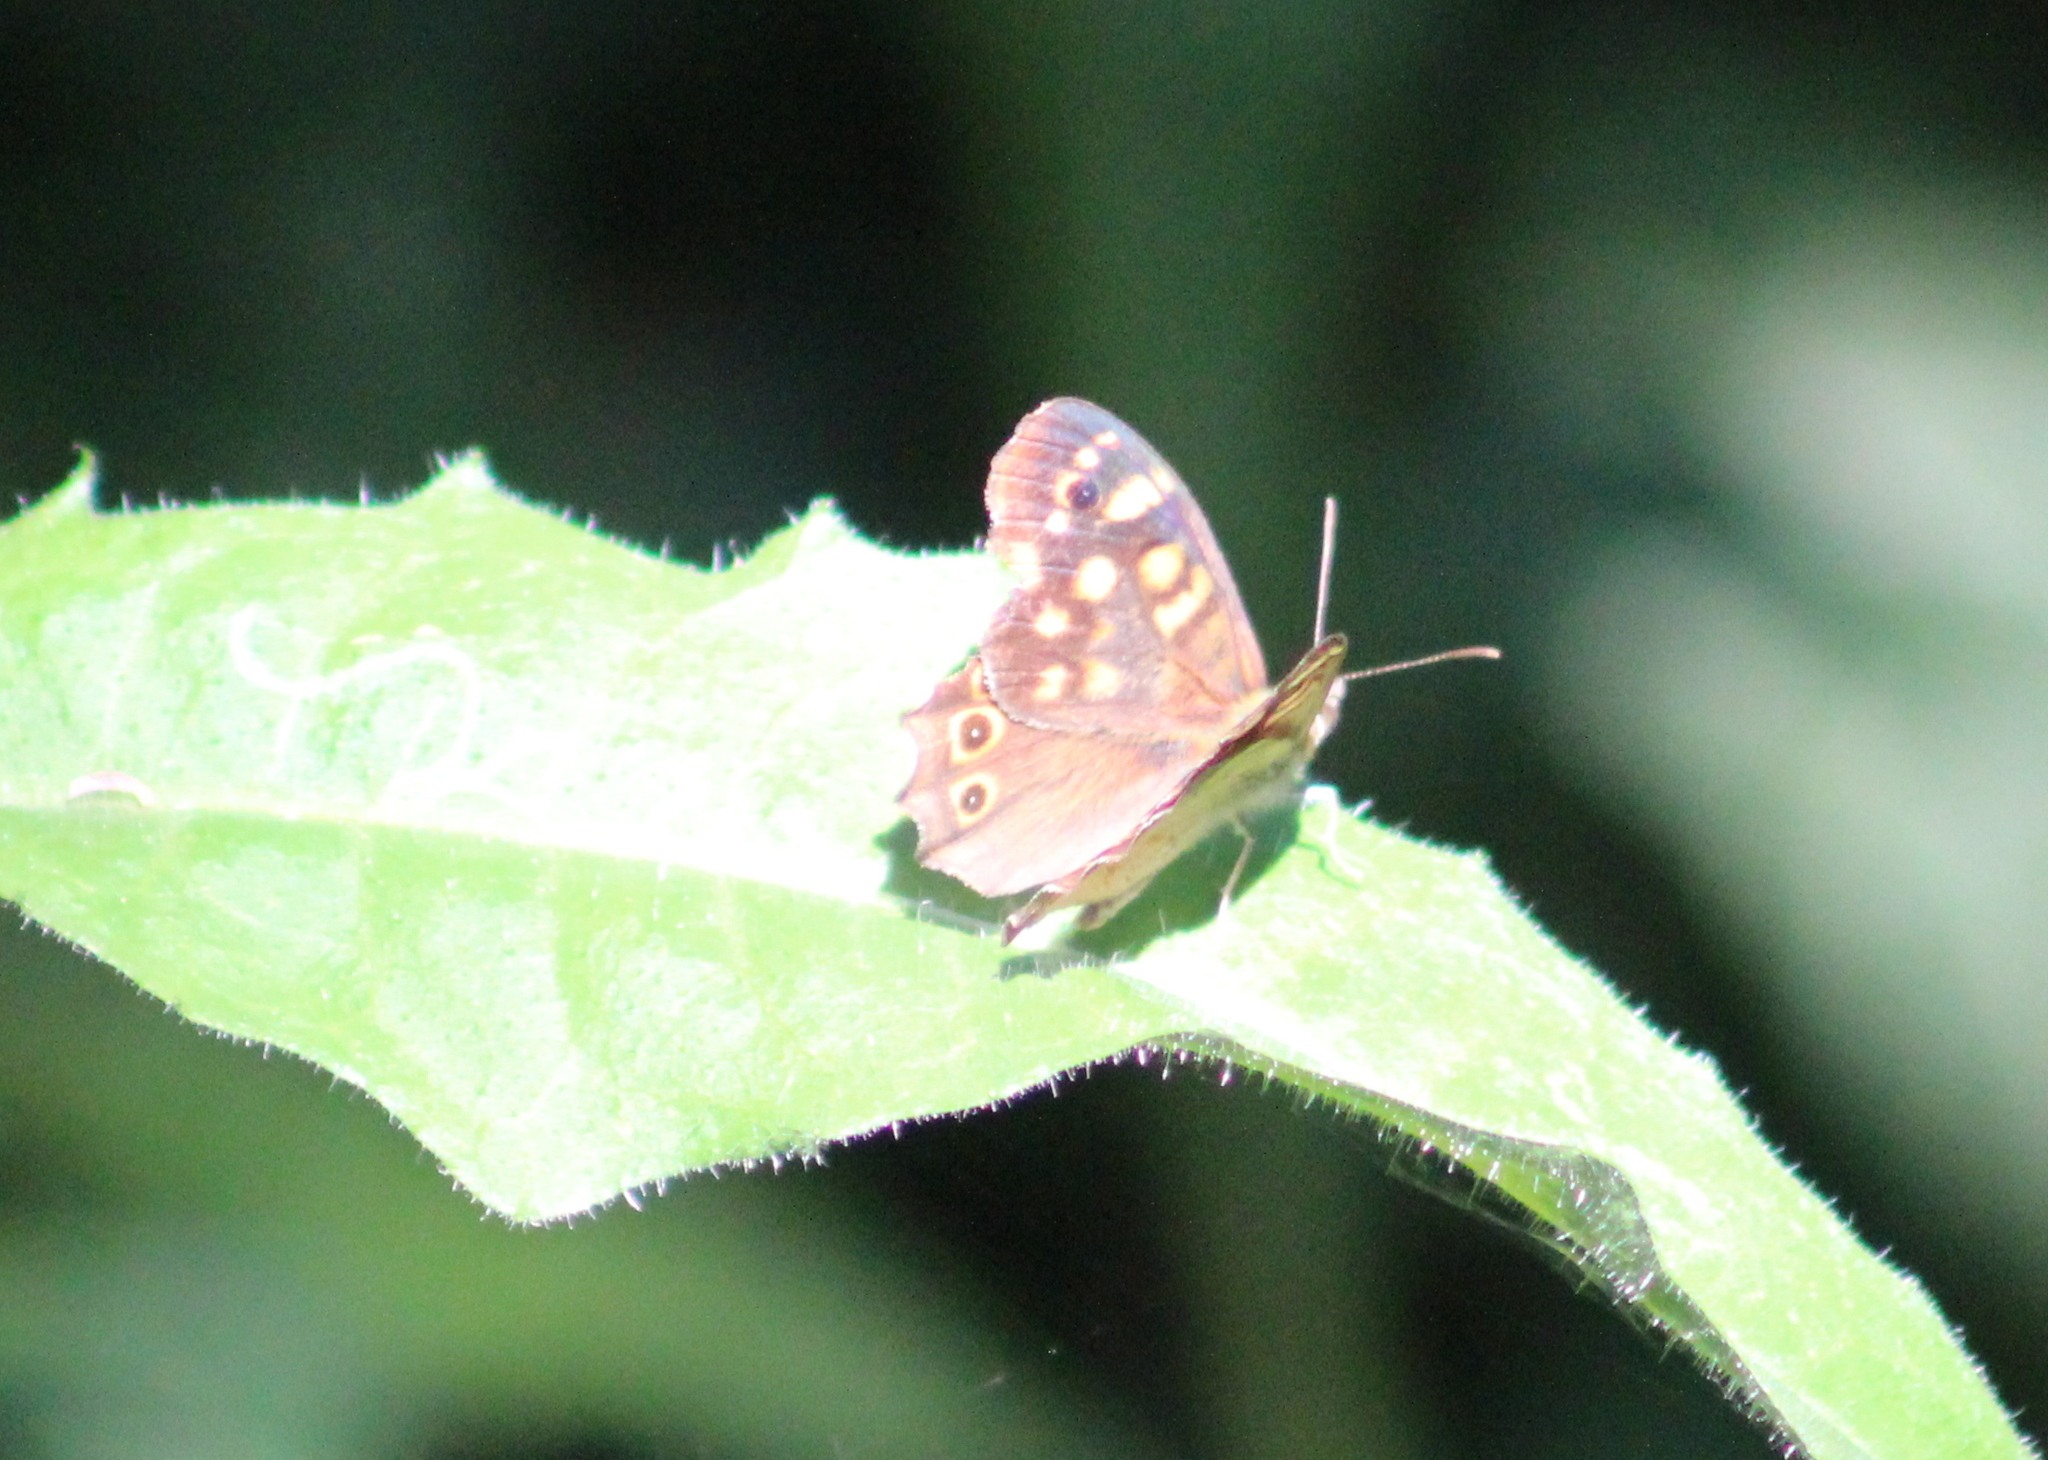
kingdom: Animalia
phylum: Arthropoda
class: Insecta
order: Lepidoptera
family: Nymphalidae
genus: Pararge
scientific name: Pararge aegeria
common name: Speckled wood
